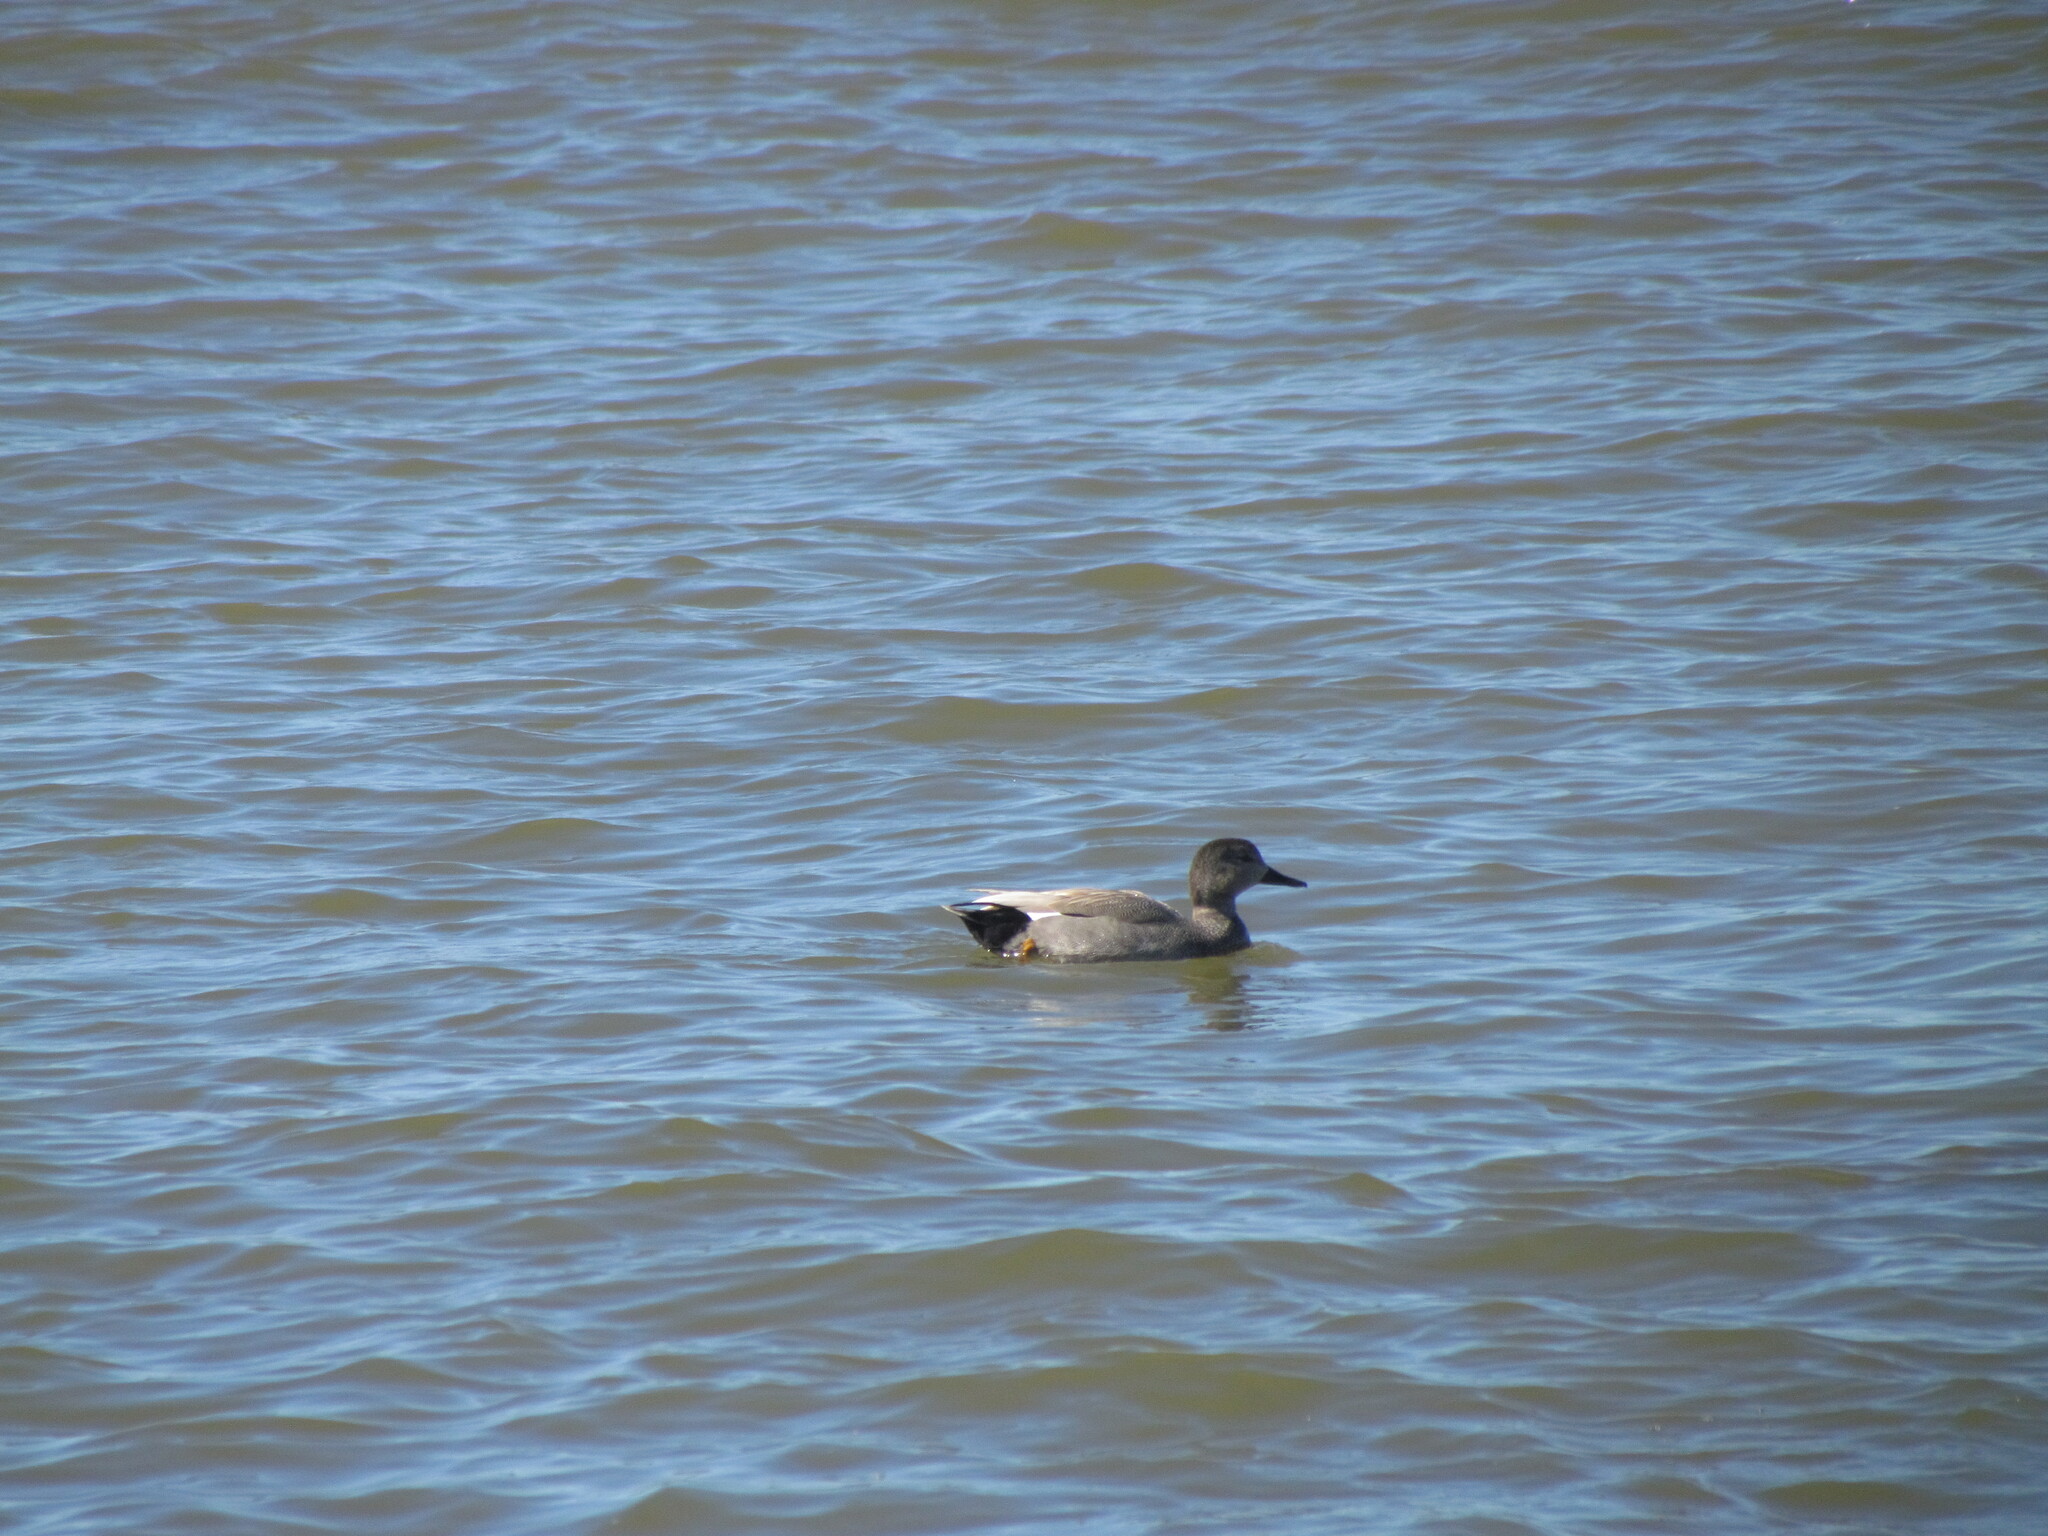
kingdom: Animalia
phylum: Chordata
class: Aves
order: Anseriformes
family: Anatidae
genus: Mareca
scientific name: Mareca strepera
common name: Gadwall
